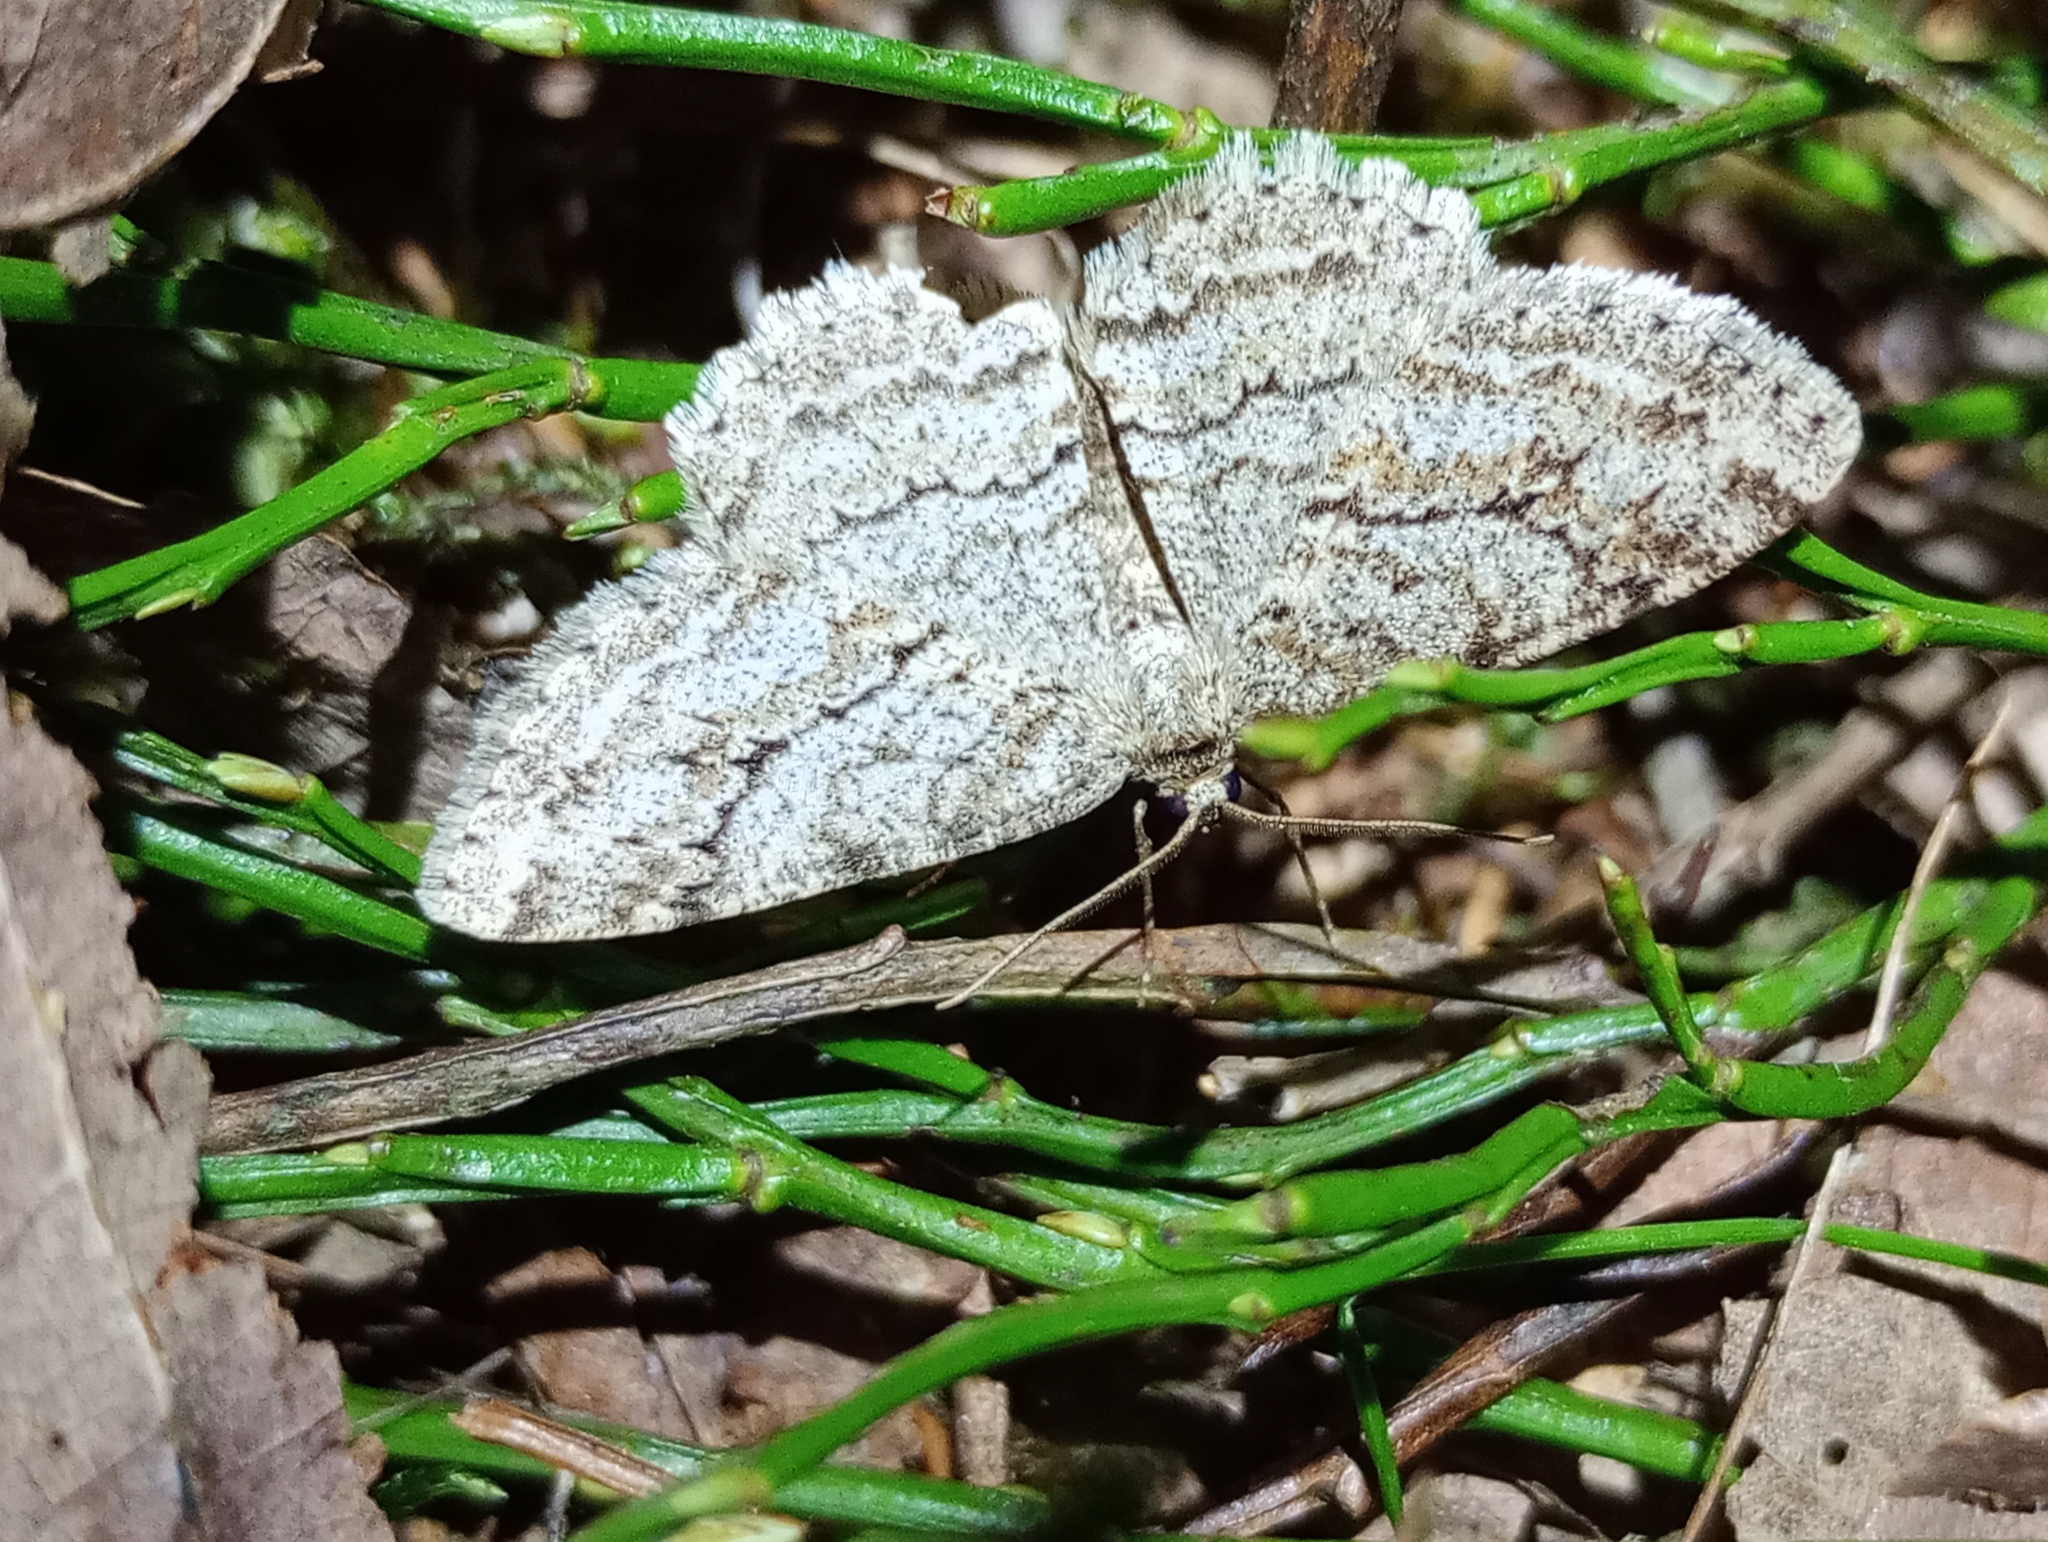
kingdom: Animalia
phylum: Arthropoda
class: Insecta
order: Lepidoptera
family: Geometridae
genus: Ectropis
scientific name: Ectropis crepuscularia
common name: Engrailed
